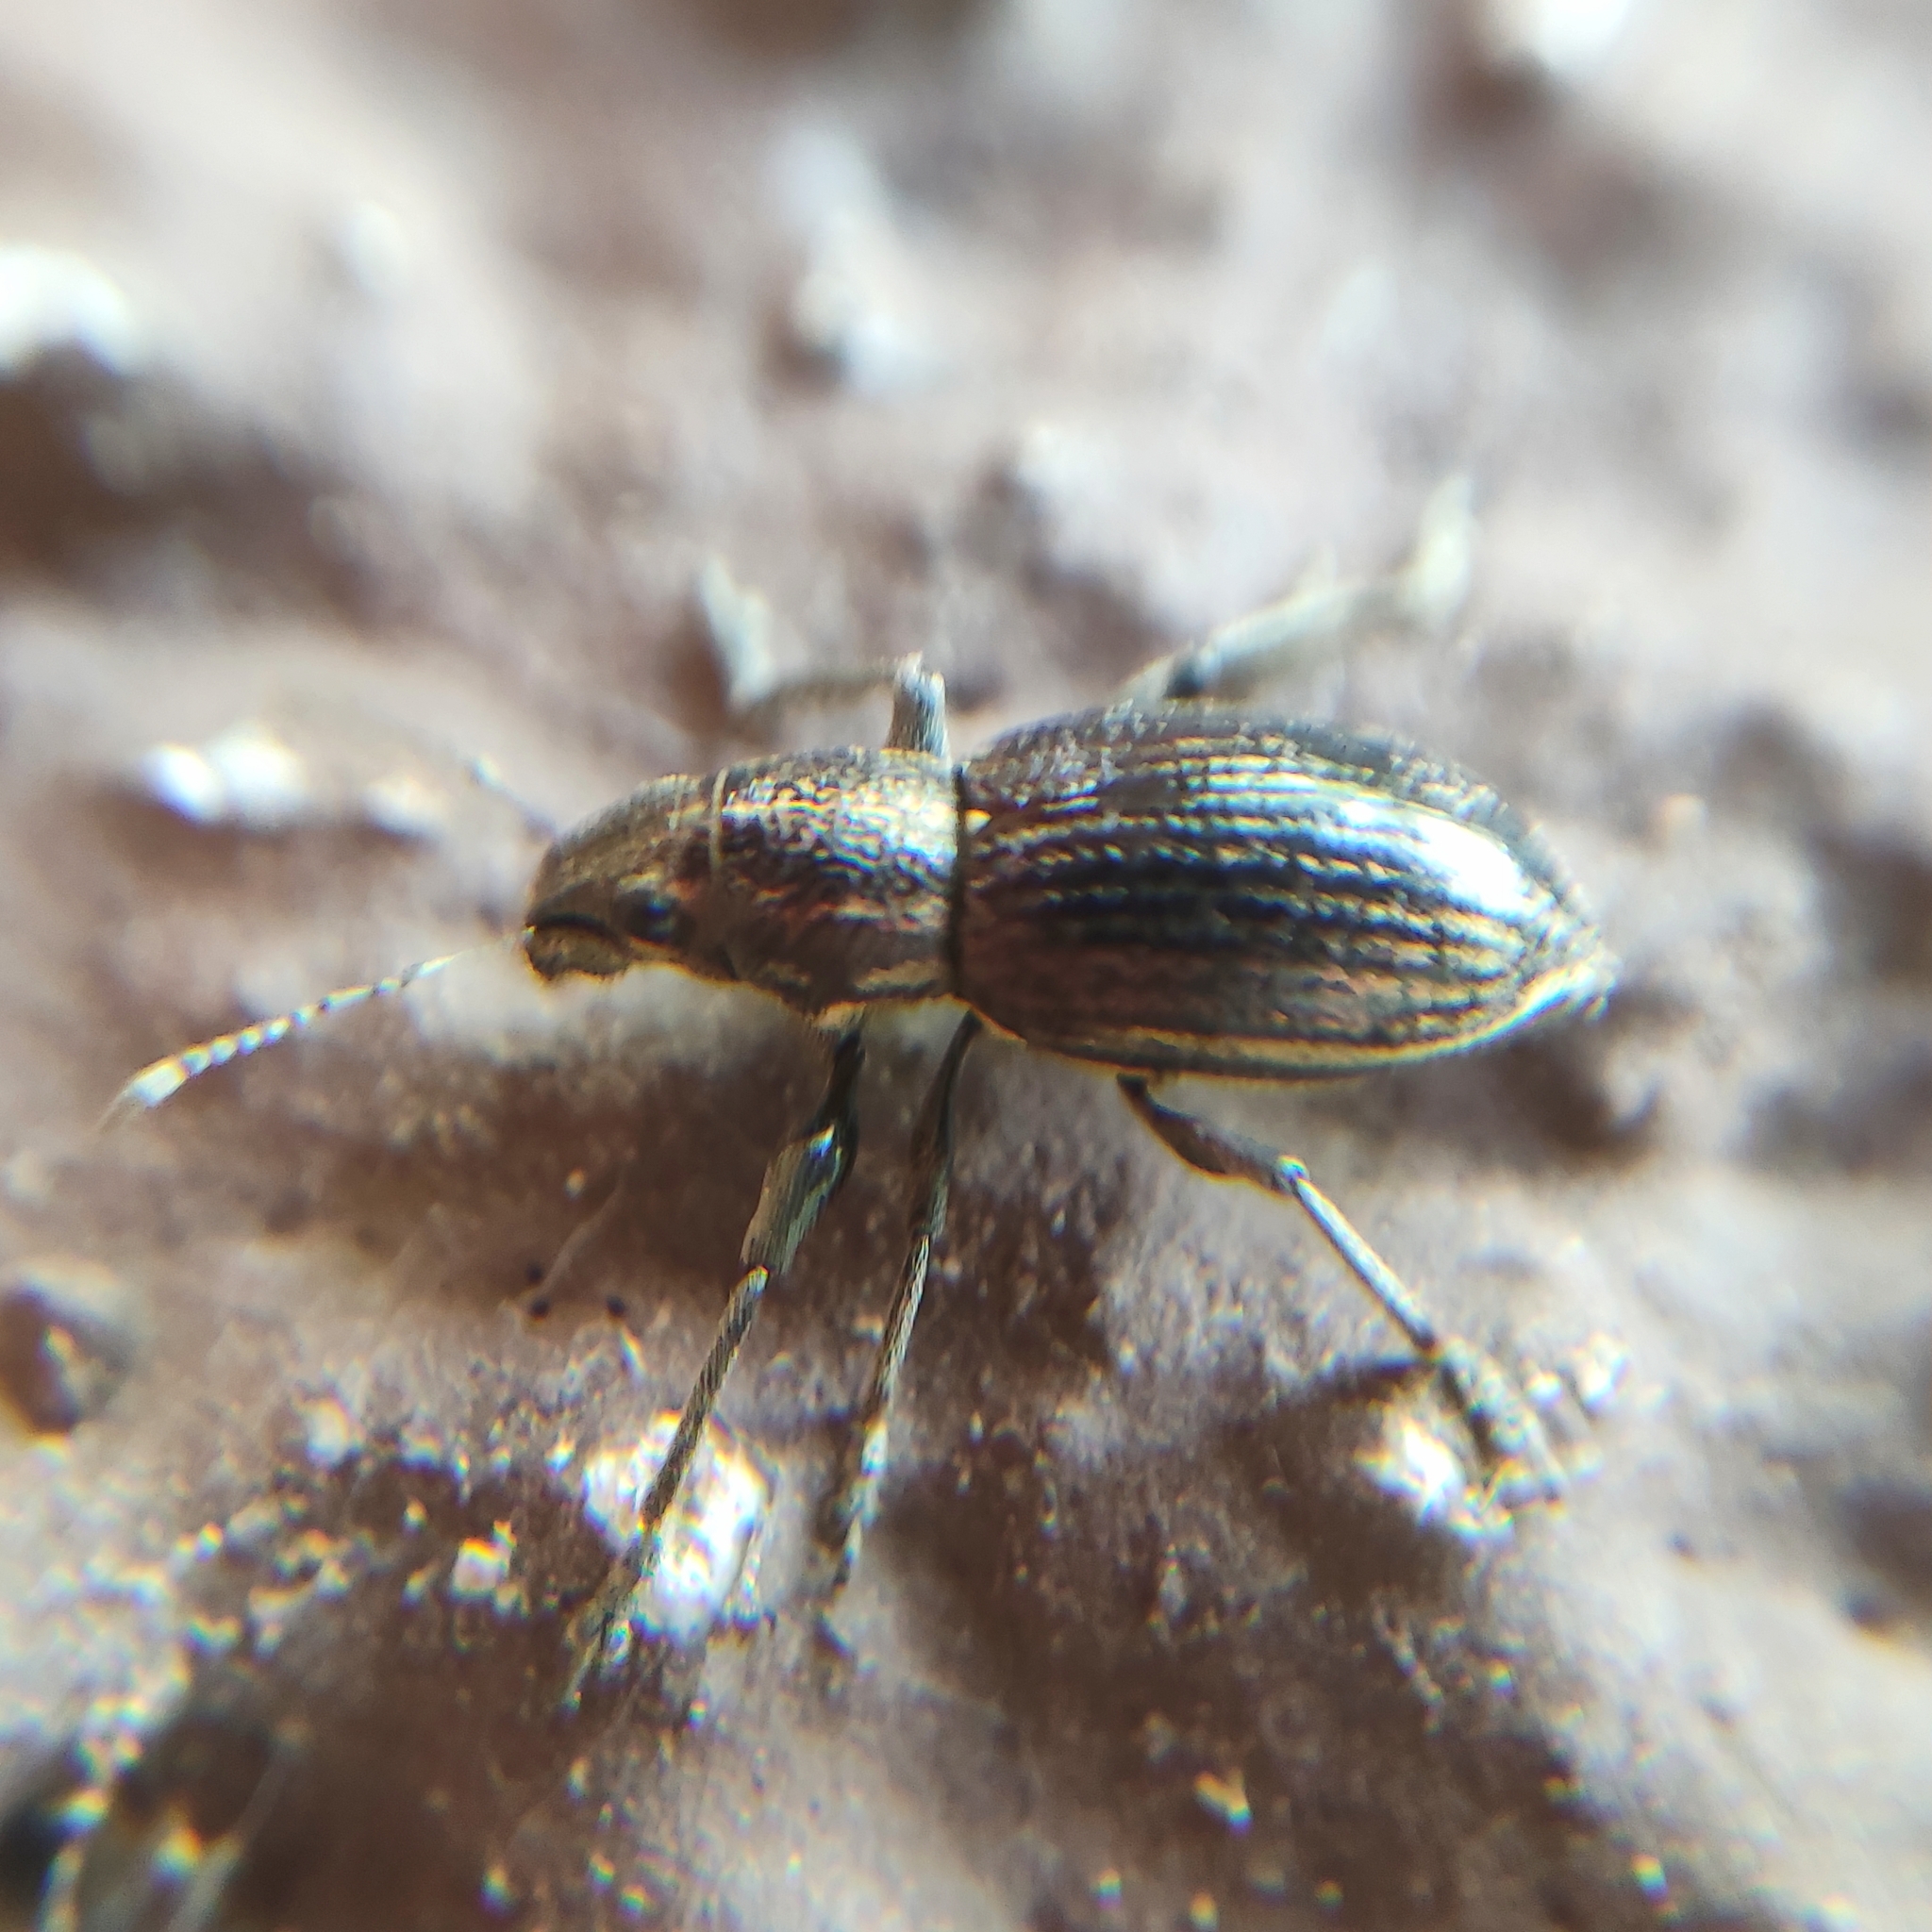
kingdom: Animalia
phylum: Arthropoda
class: Insecta
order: Coleoptera
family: Curculionidae
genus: Naupactus
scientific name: Naupactus tremolerasi
